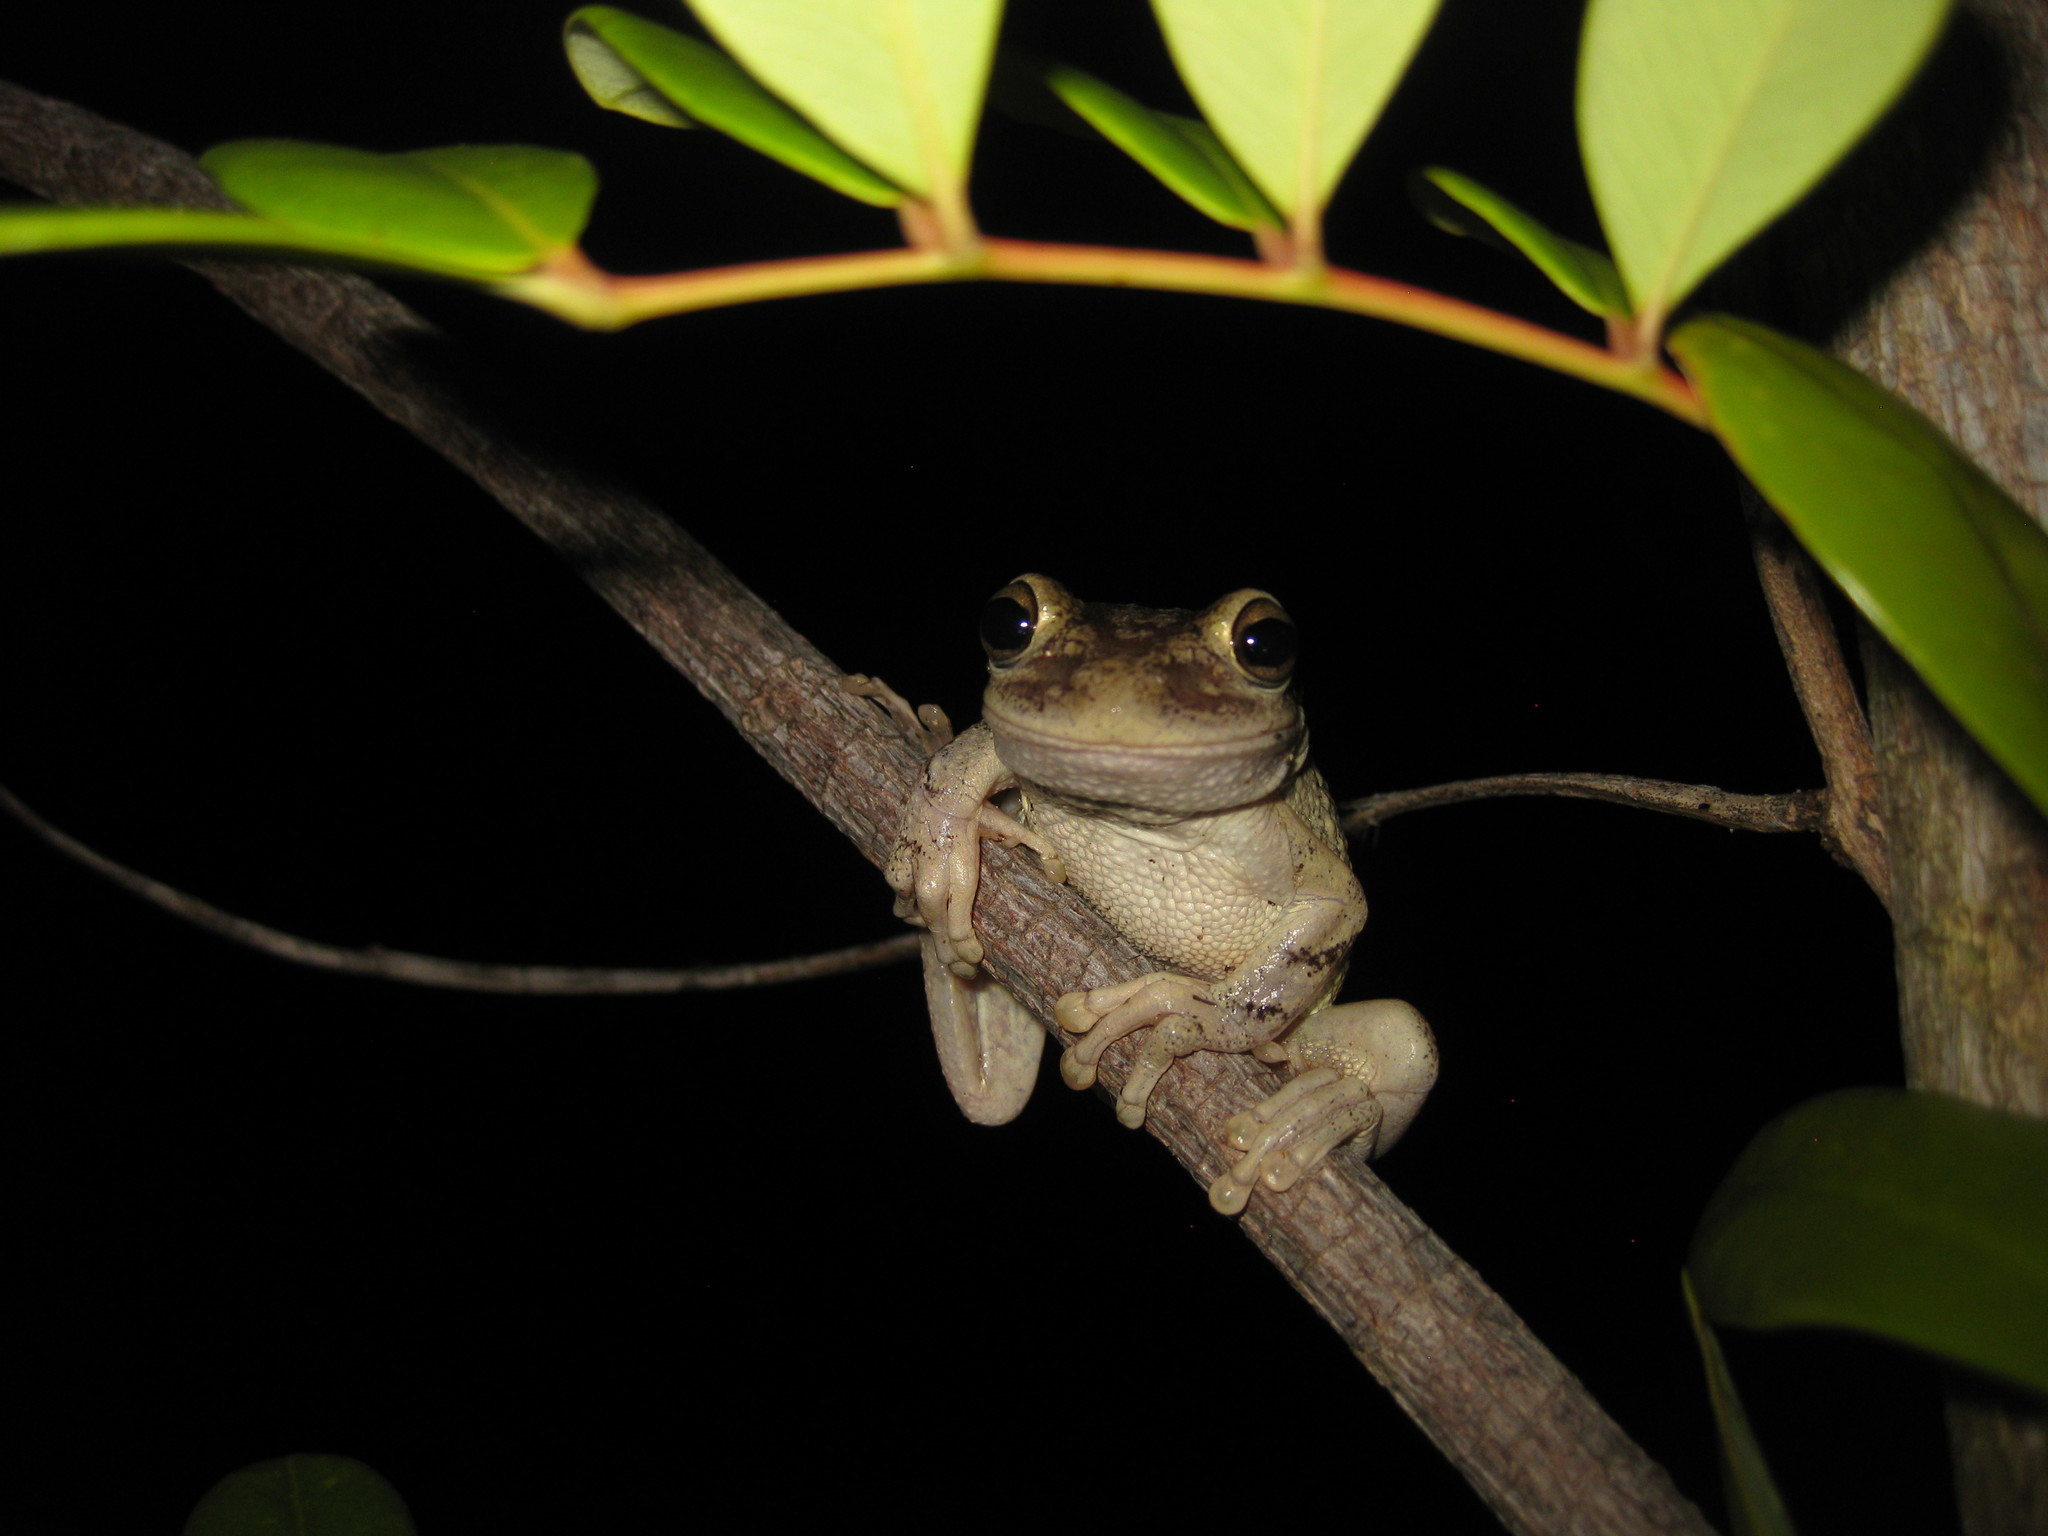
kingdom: Animalia
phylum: Chordata
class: Amphibia
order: Anura
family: Hylidae
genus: Osteopilus
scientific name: Osteopilus septentrionalis
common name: Cuban treefrog
